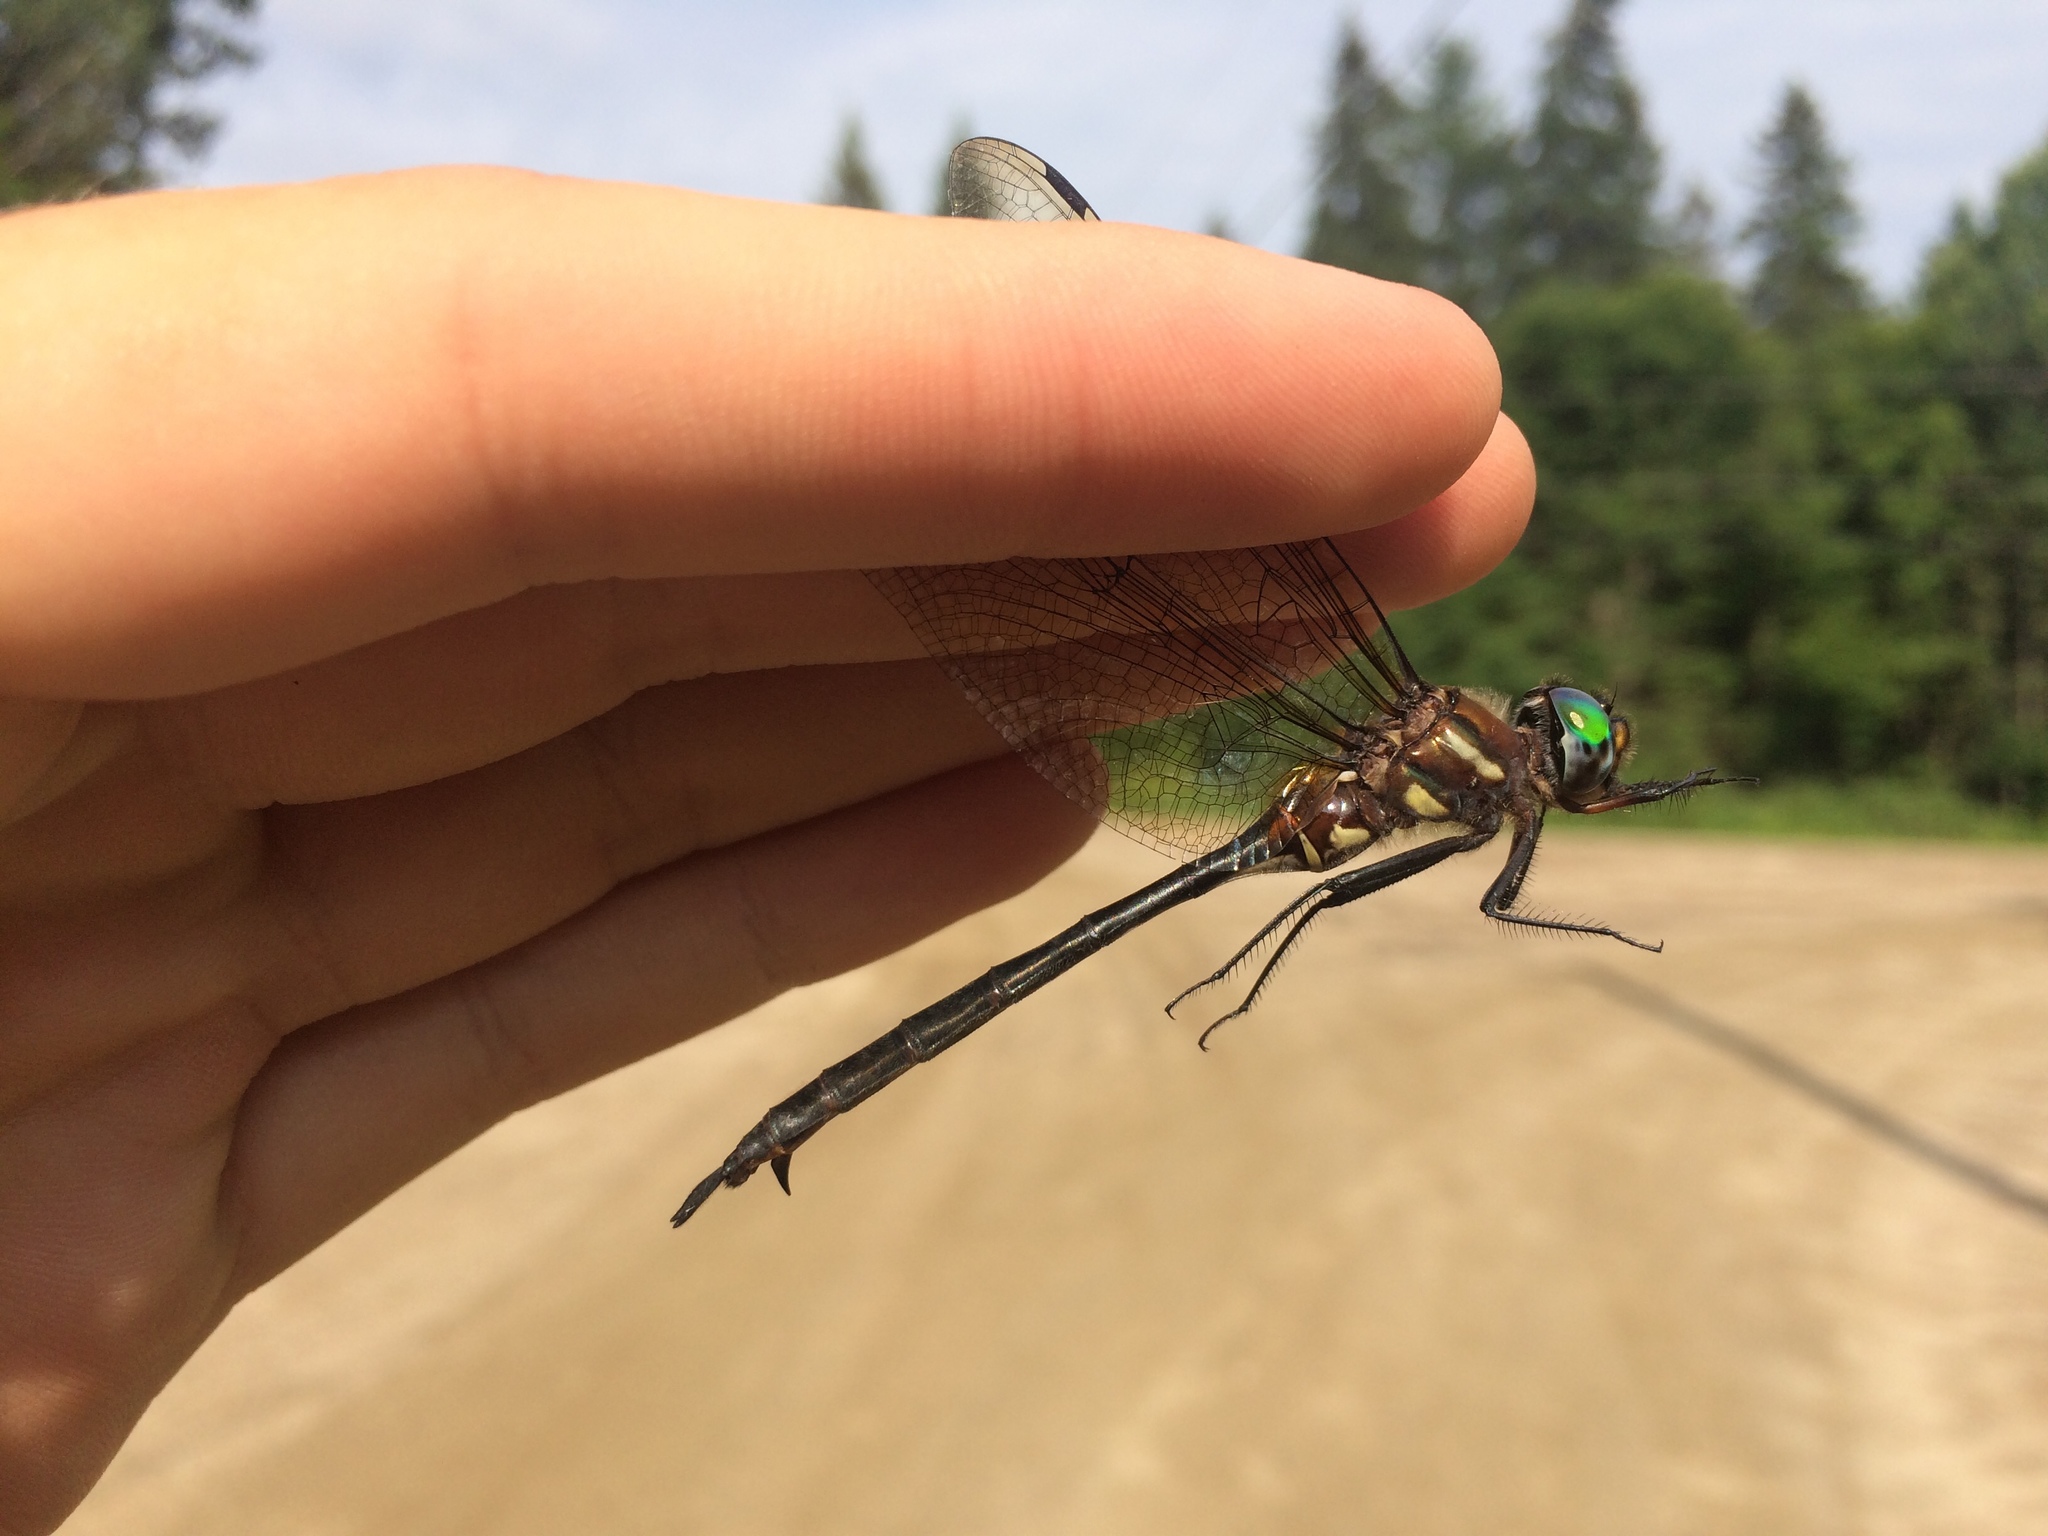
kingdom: Animalia
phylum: Arthropoda
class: Insecta
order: Odonata
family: Corduliidae
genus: Somatochlora
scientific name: Somatochlora tenebrosa
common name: Clamp-tipped emerald
